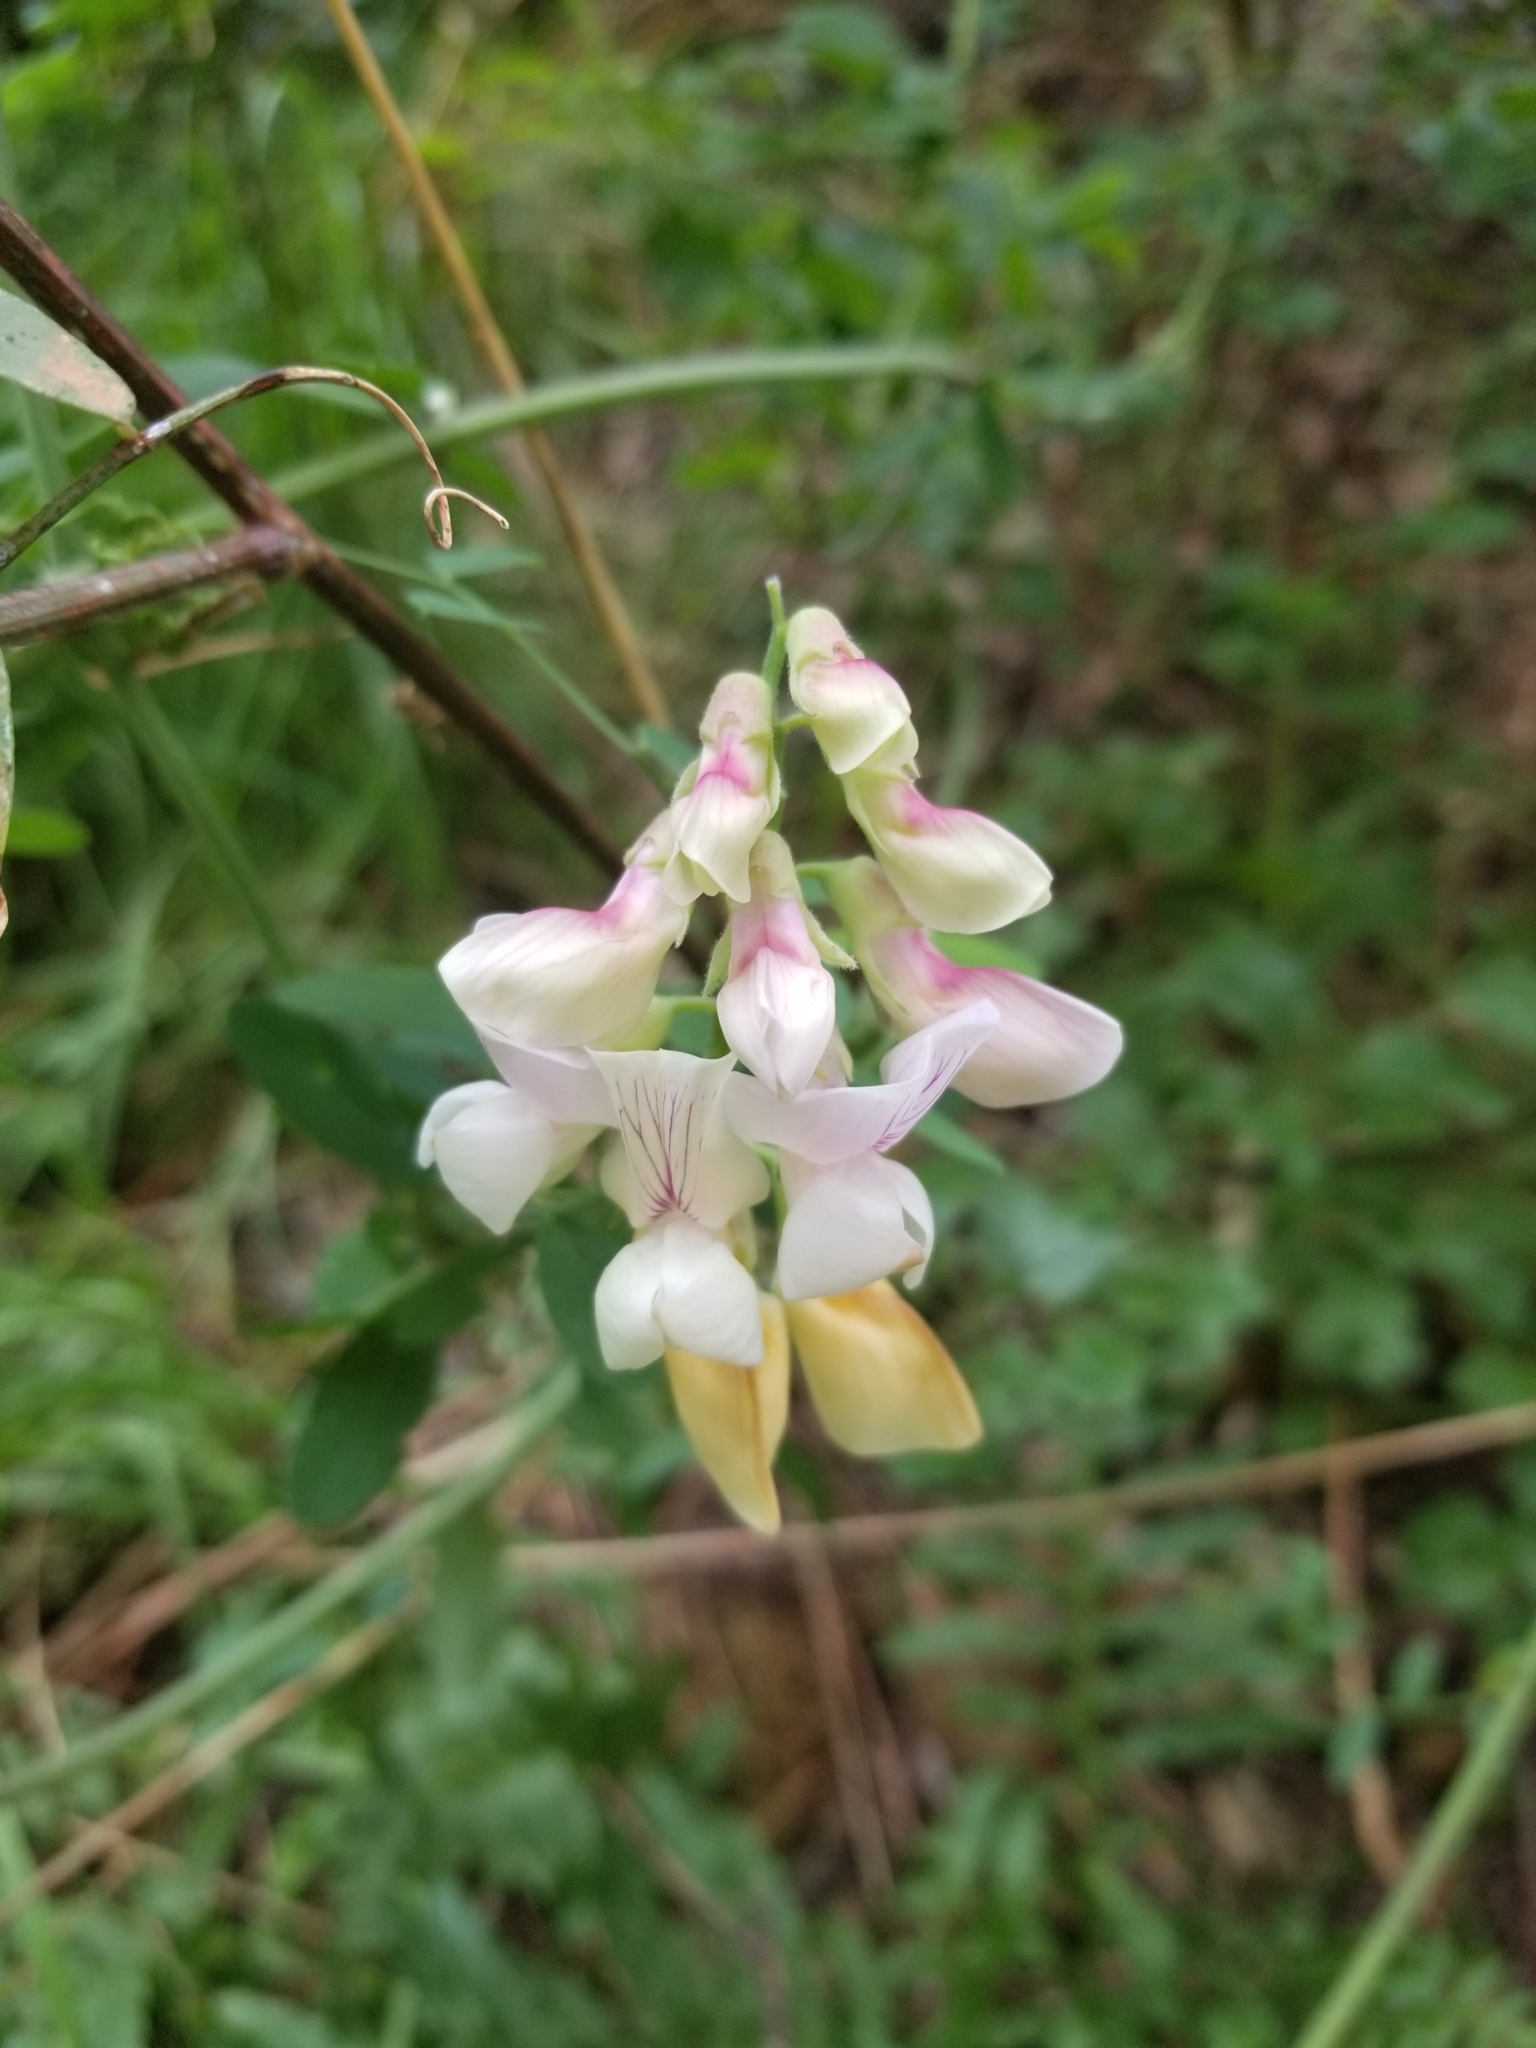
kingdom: Plantae
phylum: Tracheophyta
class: Magnoliopsida
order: Fabales
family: Fabaceae
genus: Lathyrus
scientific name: Lathyrus vestitus
